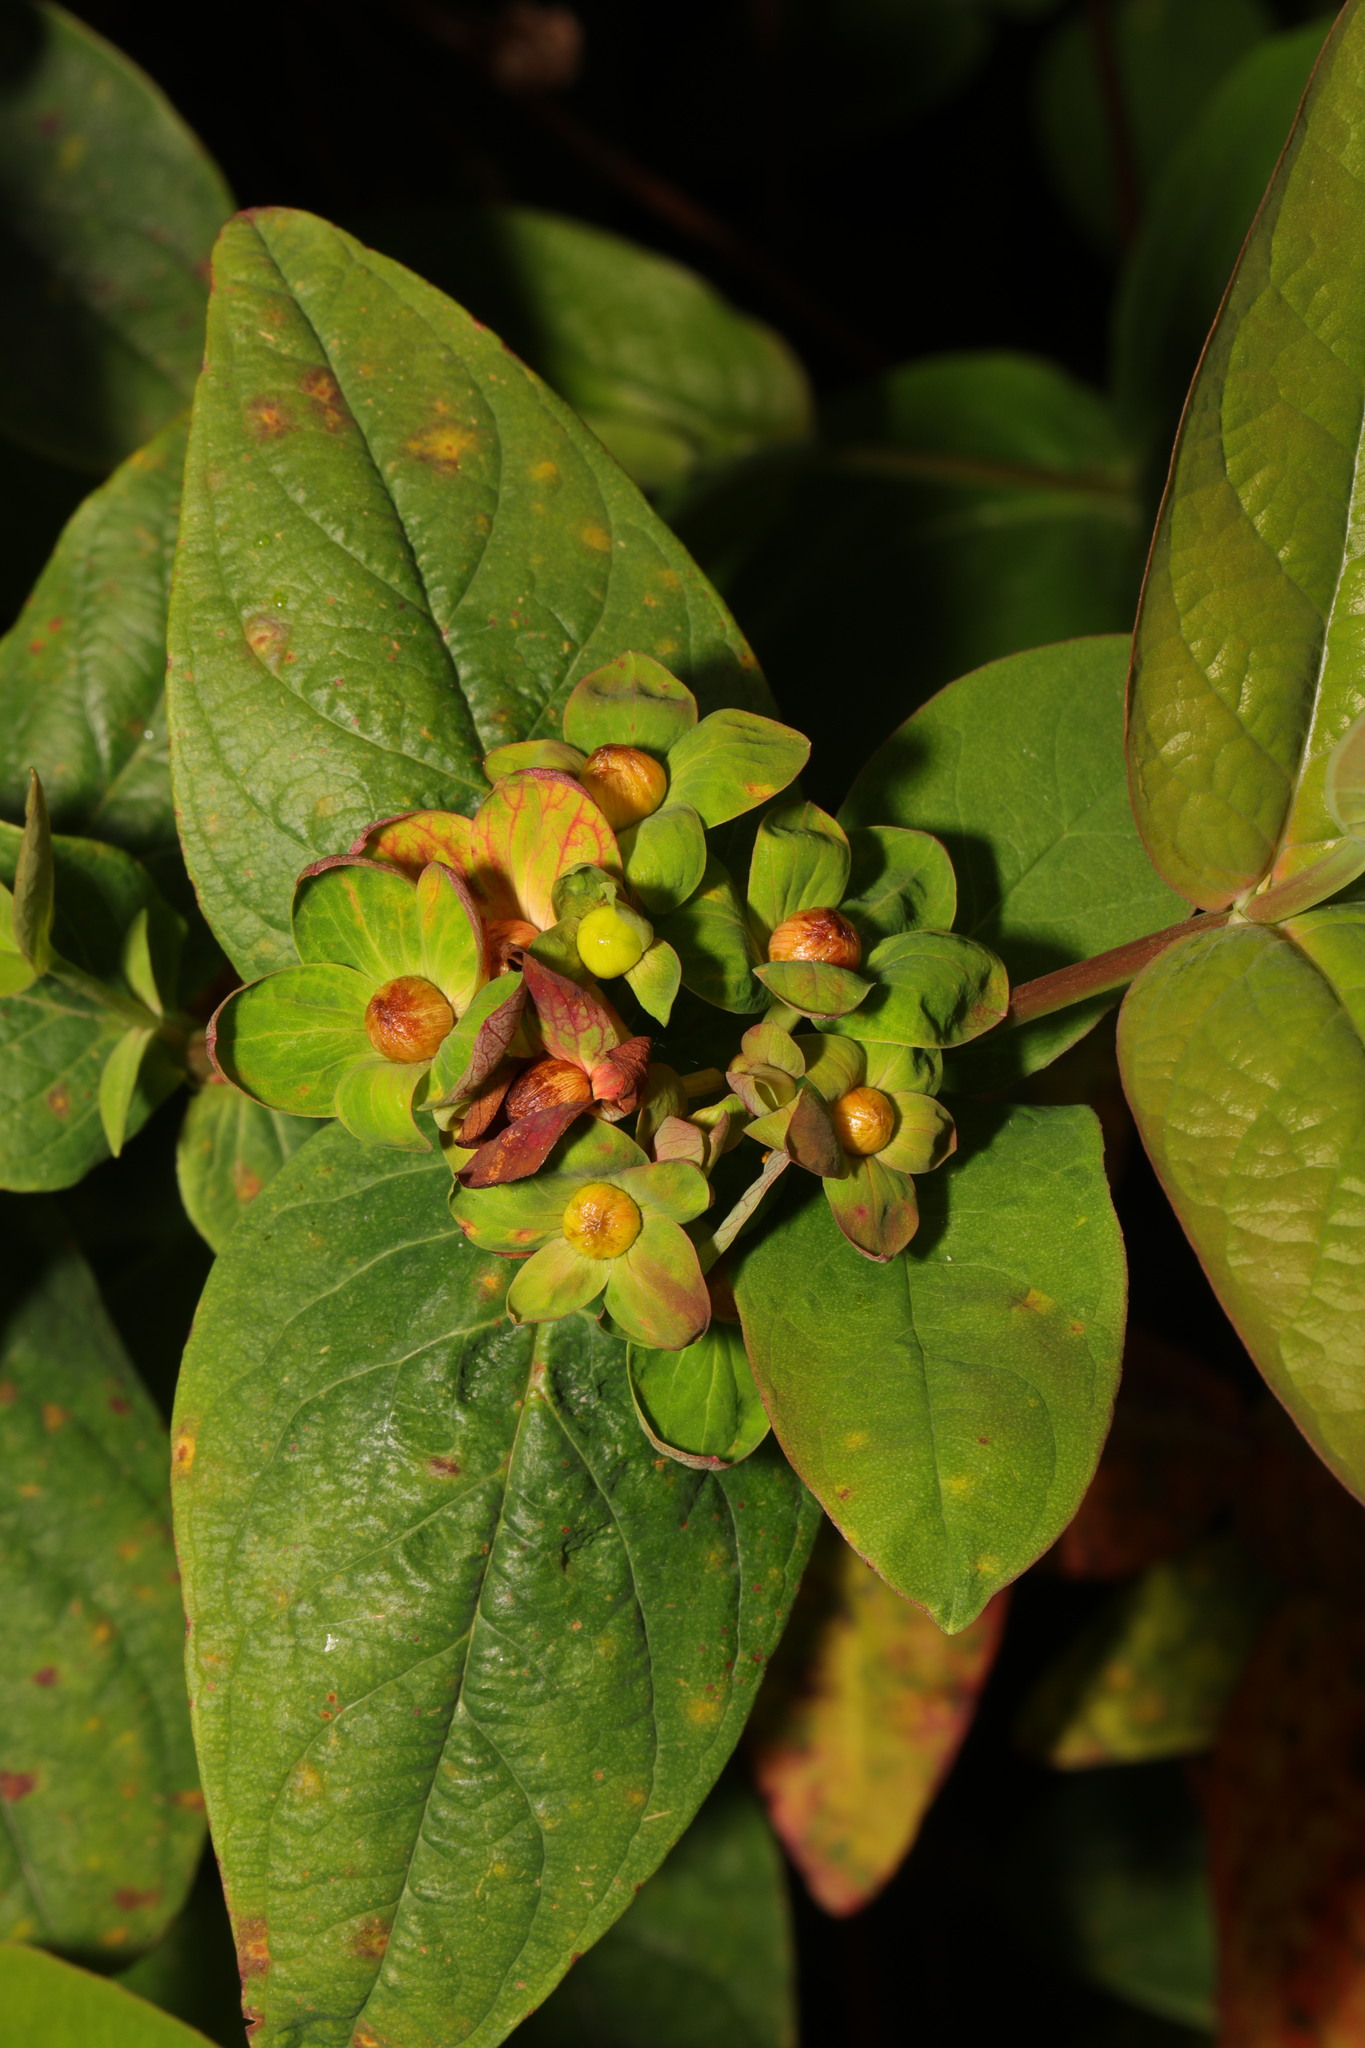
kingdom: Plantae
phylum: Tracheophyta
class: Magnoliopsida
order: Malpighiales
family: Hypericaceae
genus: Hypericum
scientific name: Hypericum androsaemum
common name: Sweet-amber
